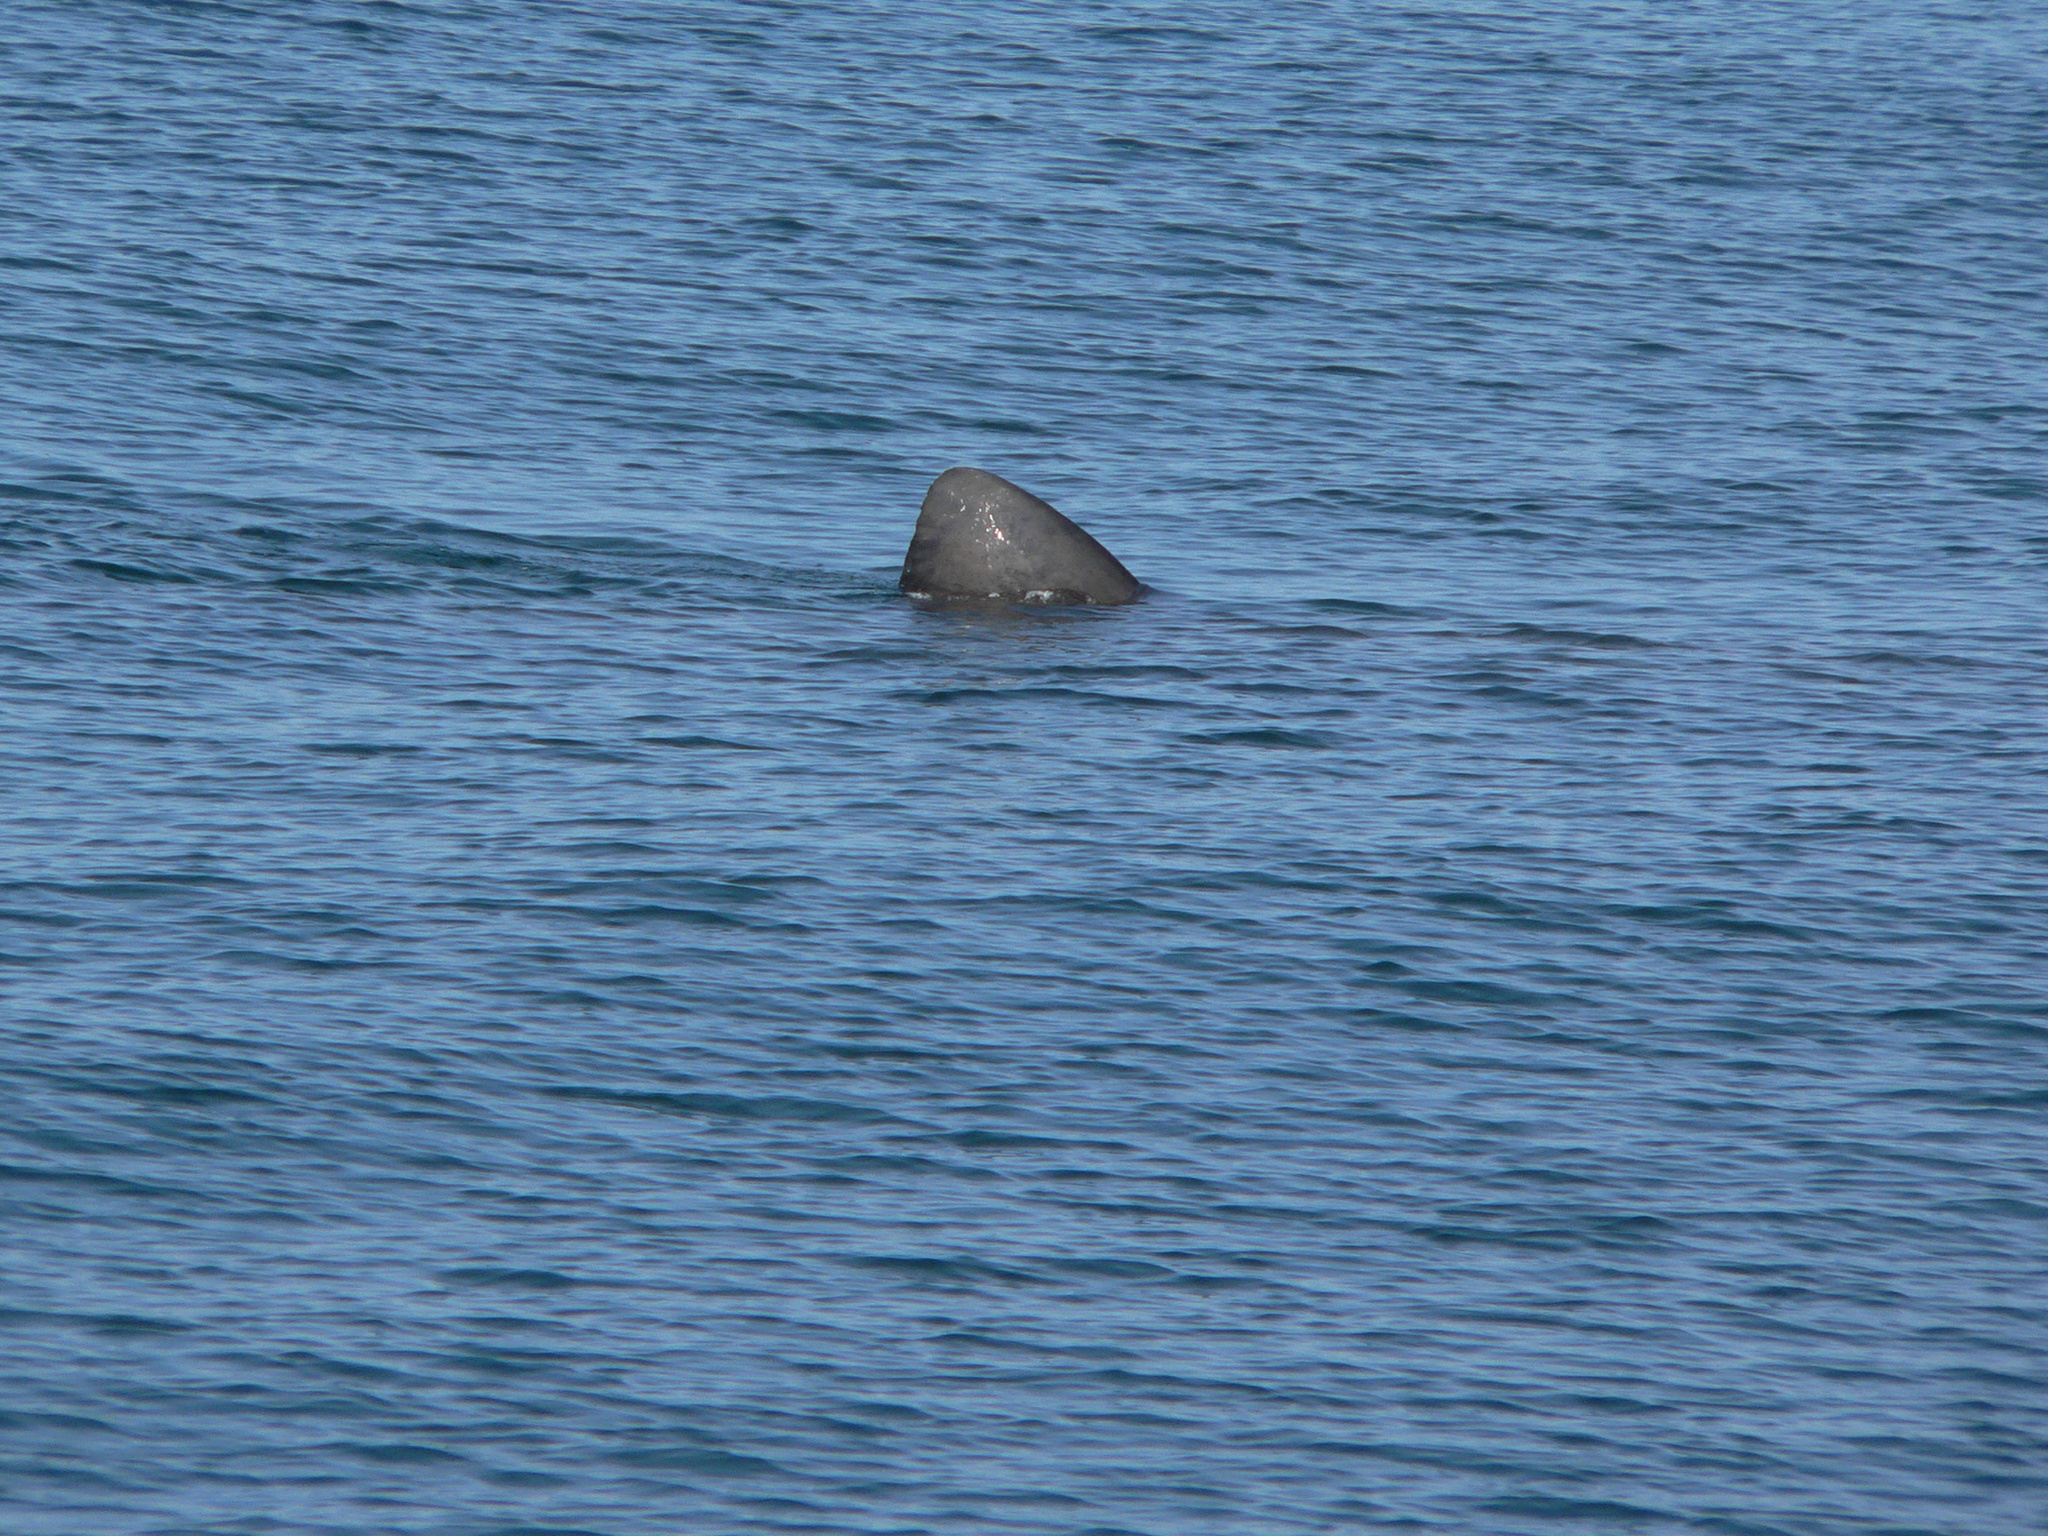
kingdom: Animalia
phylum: Chordata
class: Elasmobranchii
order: Lamniformes
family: Cetorhinidae
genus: Cetorhinus
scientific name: Cetorhinus maximus
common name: Basking shark
